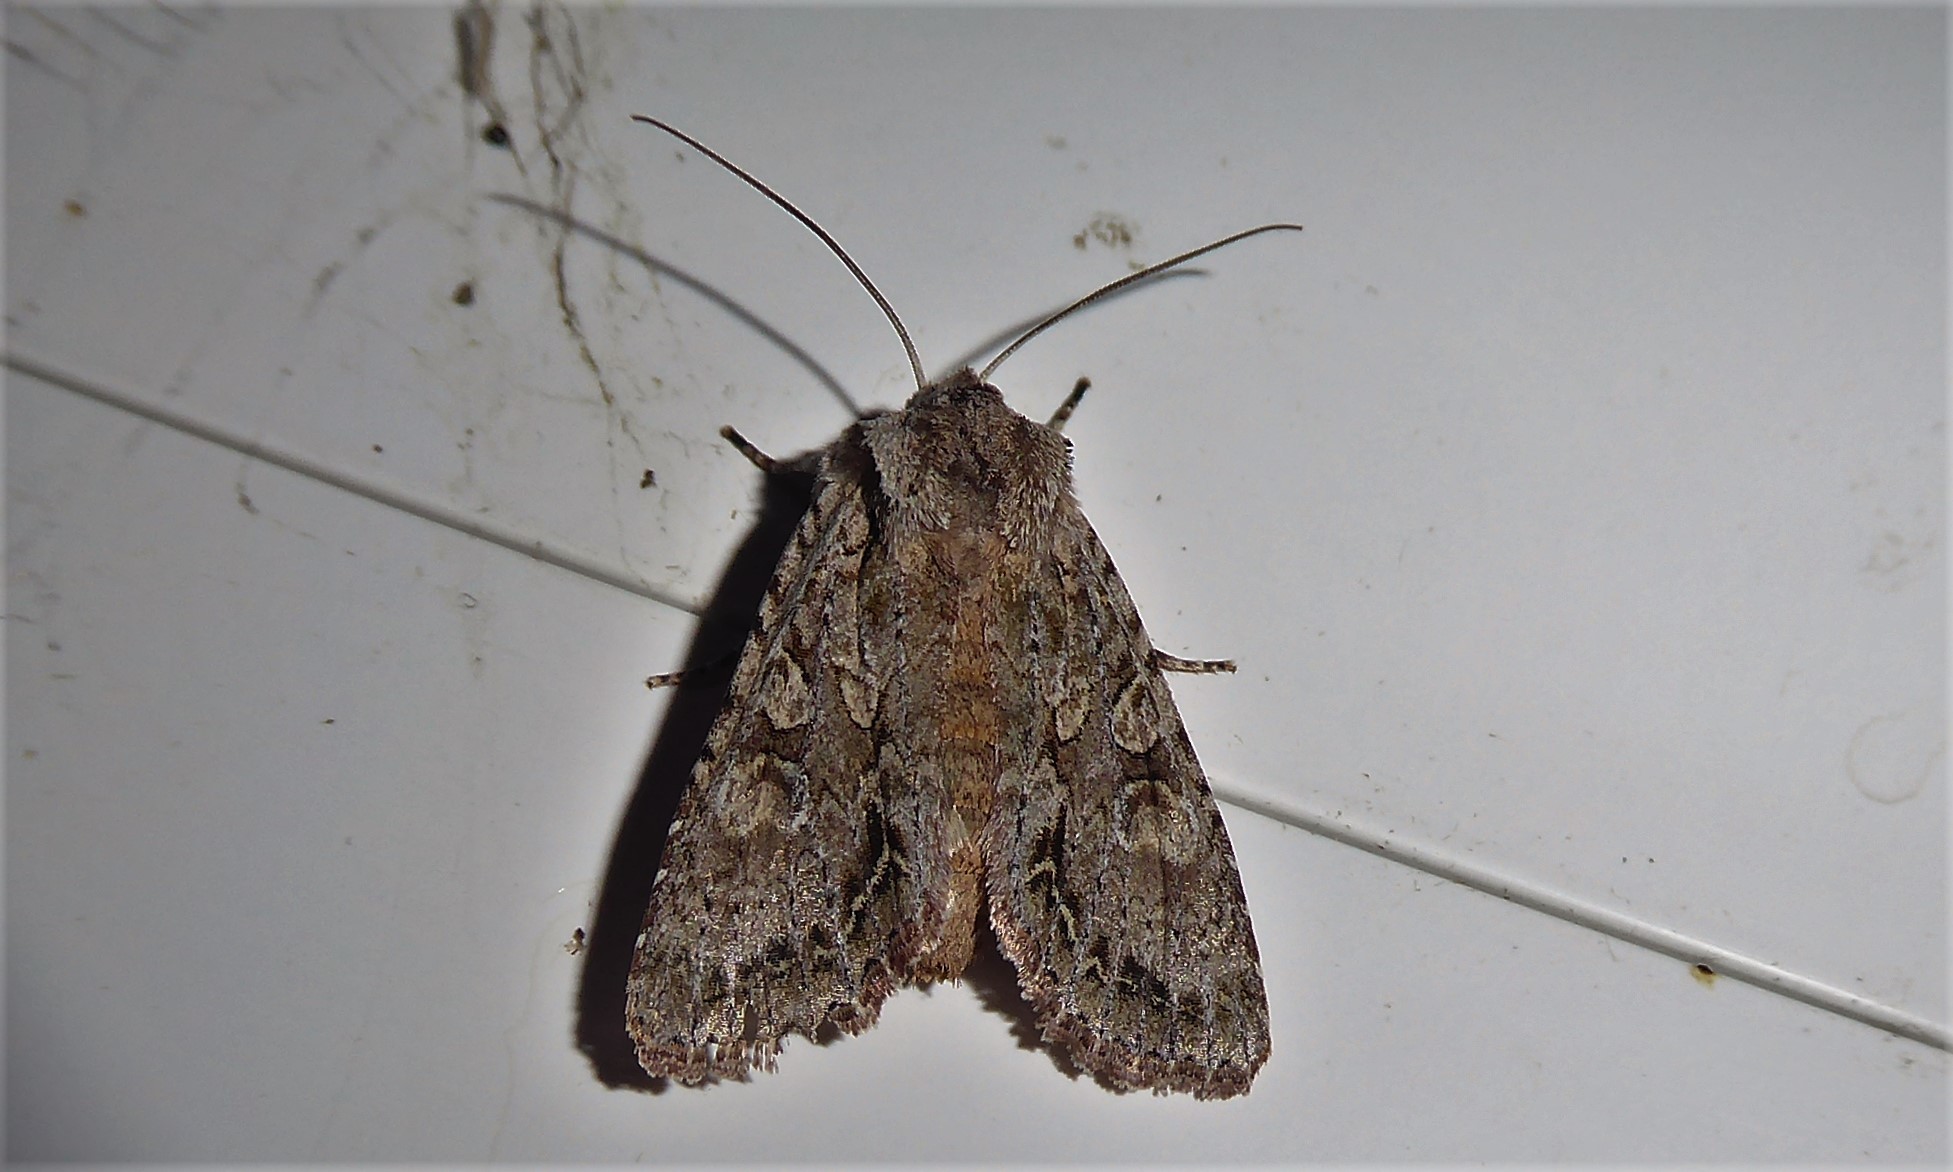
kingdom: Animalia
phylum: Arthropoda
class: Insecta
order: Lepidoptera
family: Noctuidae
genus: Ichneutica
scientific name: Ichneutica mutans
